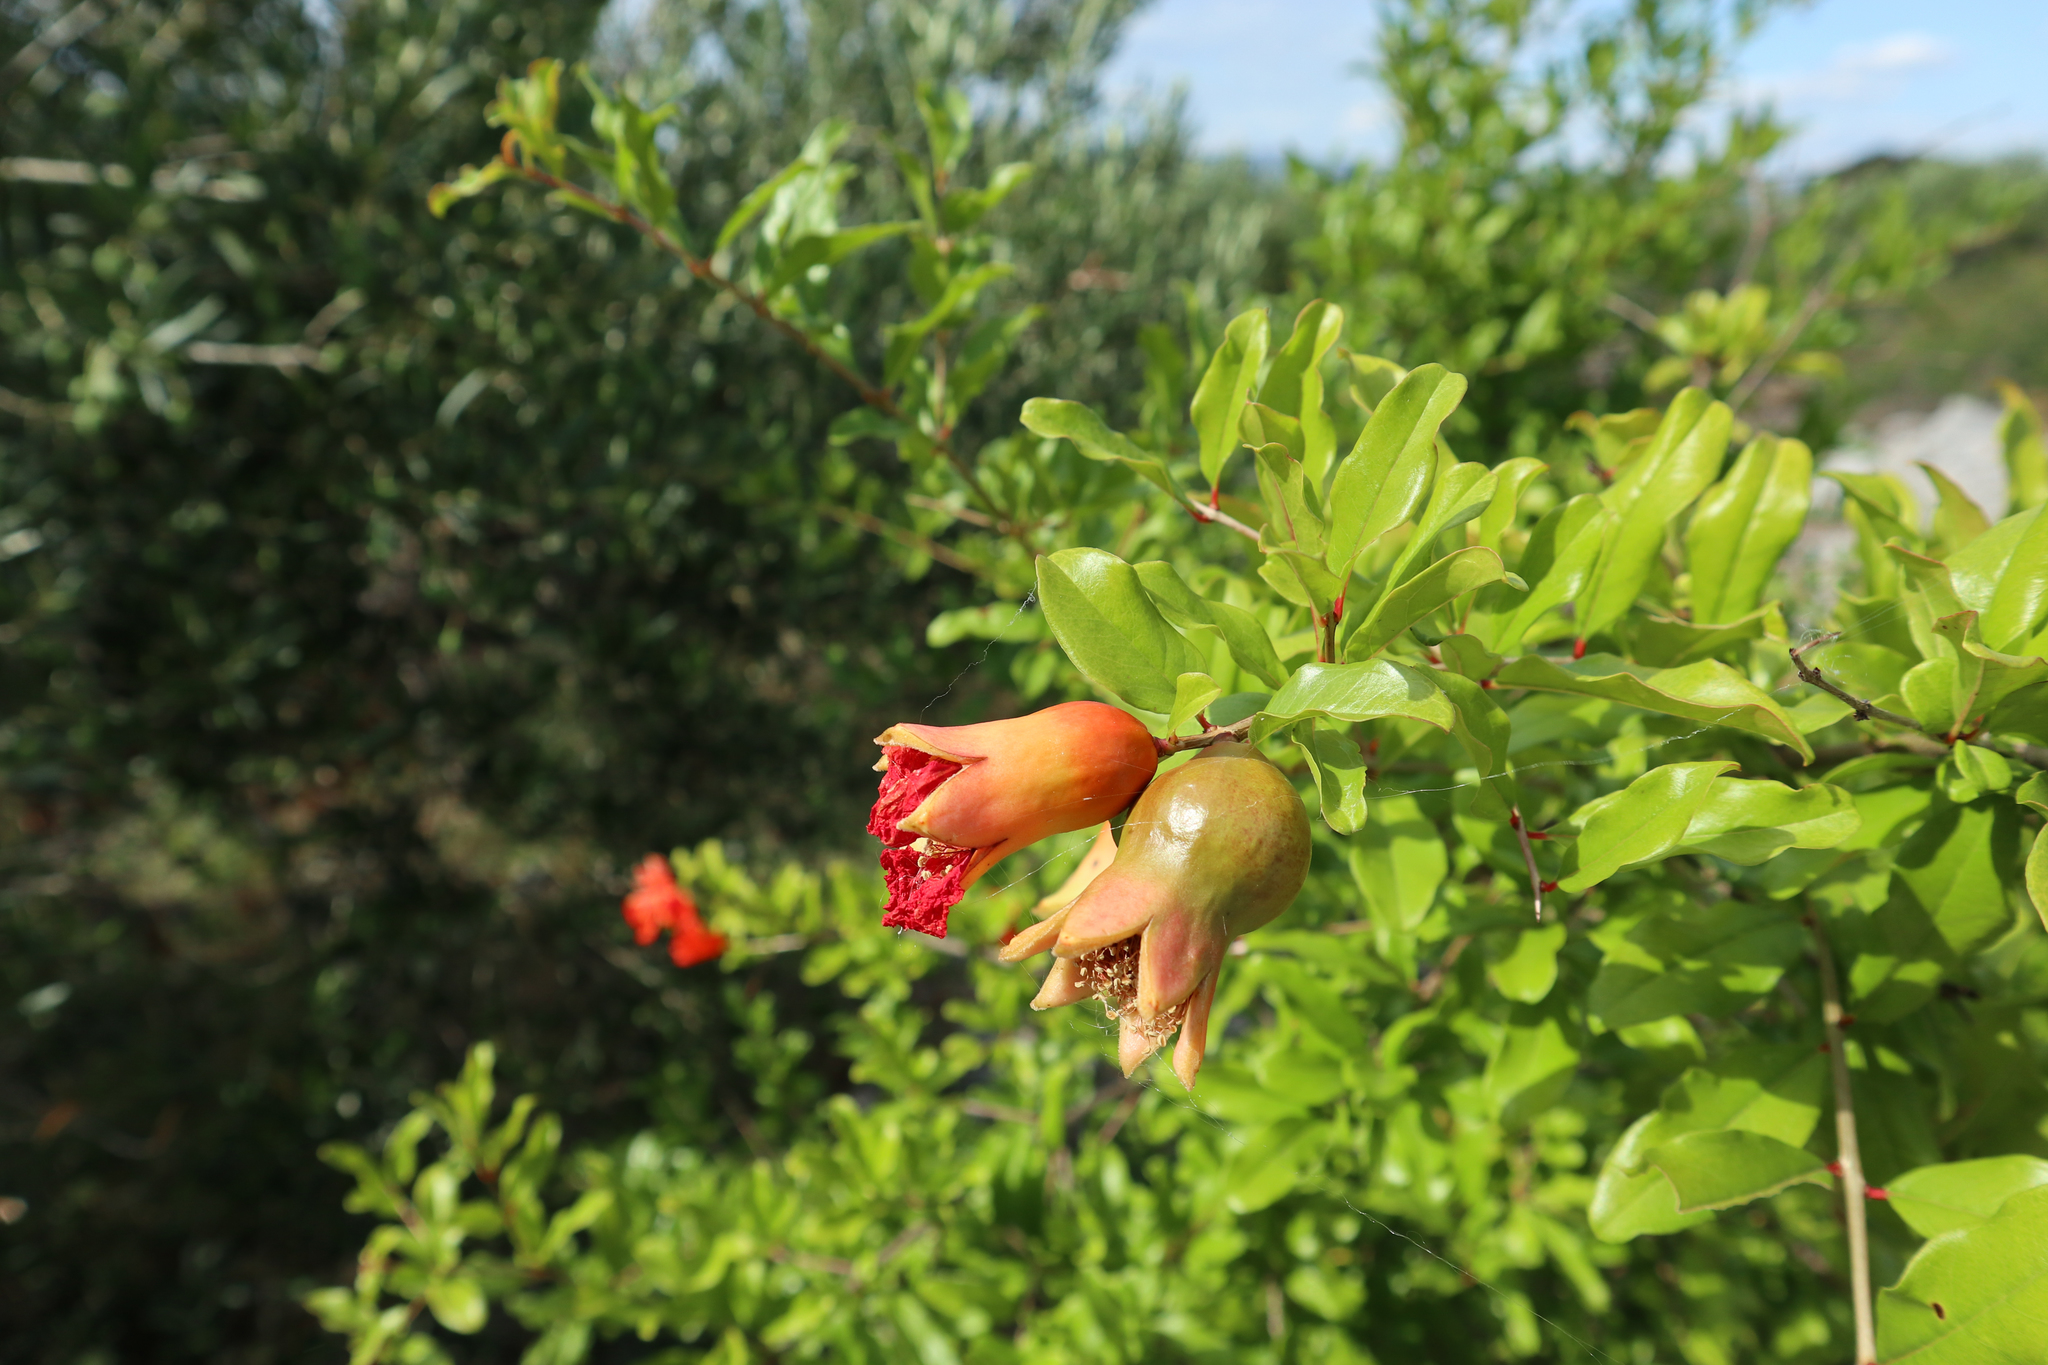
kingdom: Plantae
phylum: Tracheophyta
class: Magnoliopsida
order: Myrtales
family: Lythraceae
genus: Punica
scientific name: Punica granatum
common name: Pomegranate
